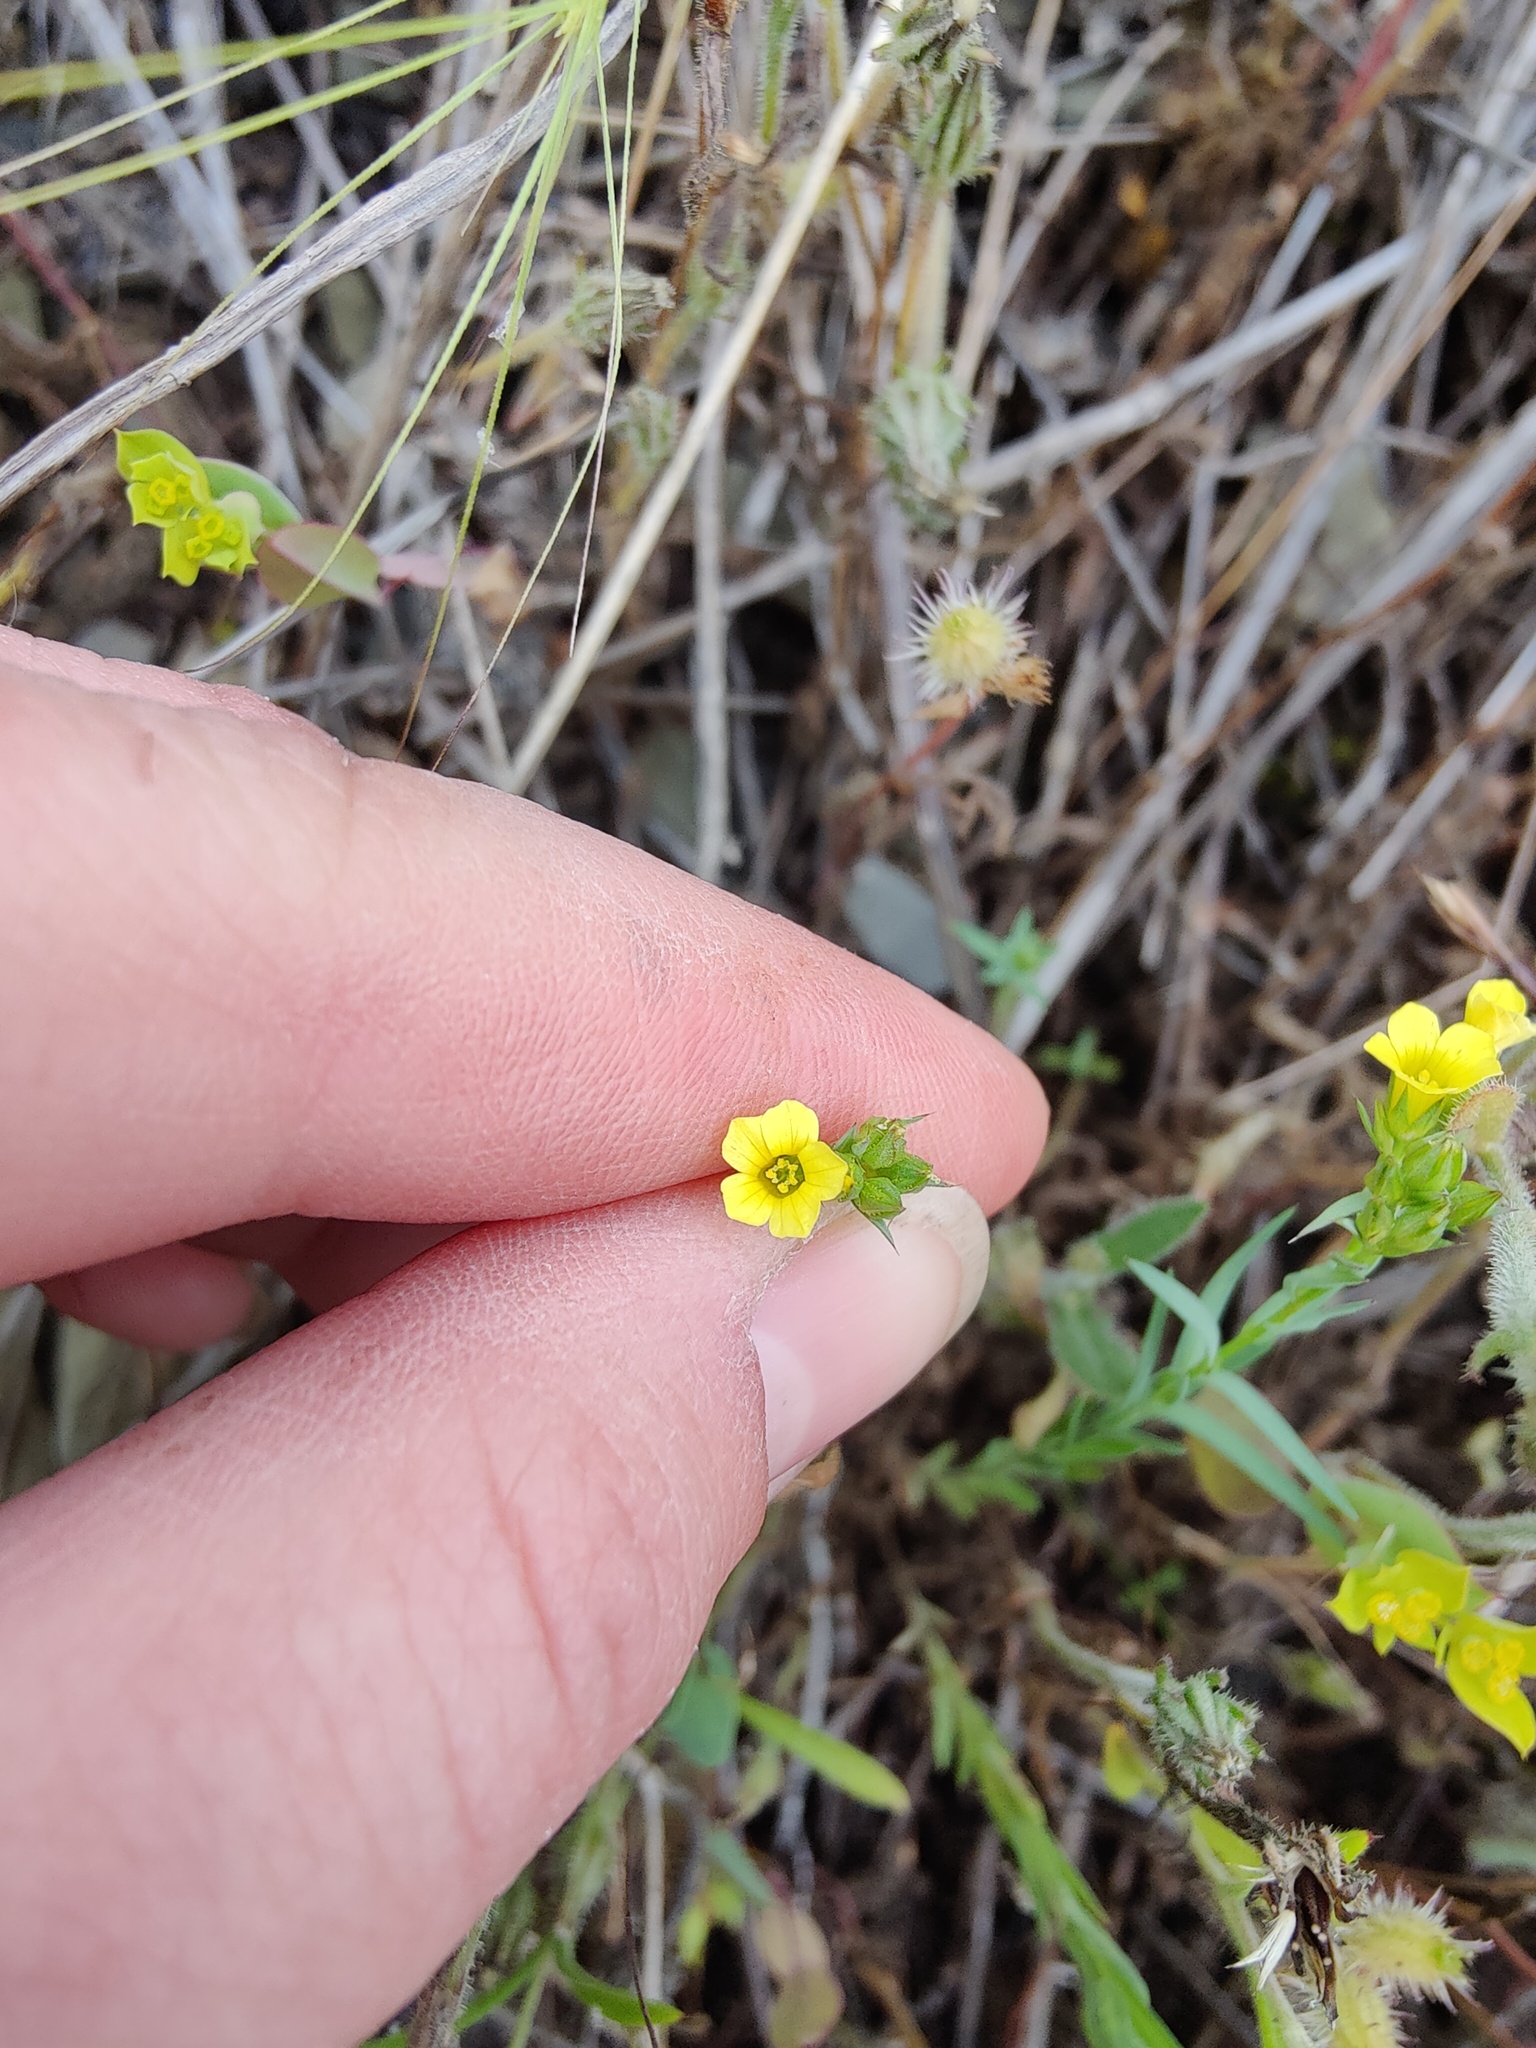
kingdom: Plantae
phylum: Tracheophyta
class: Magnoliopsida
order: Malpighiales
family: Linaceae
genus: Linum
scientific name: Linum corymbulosum
